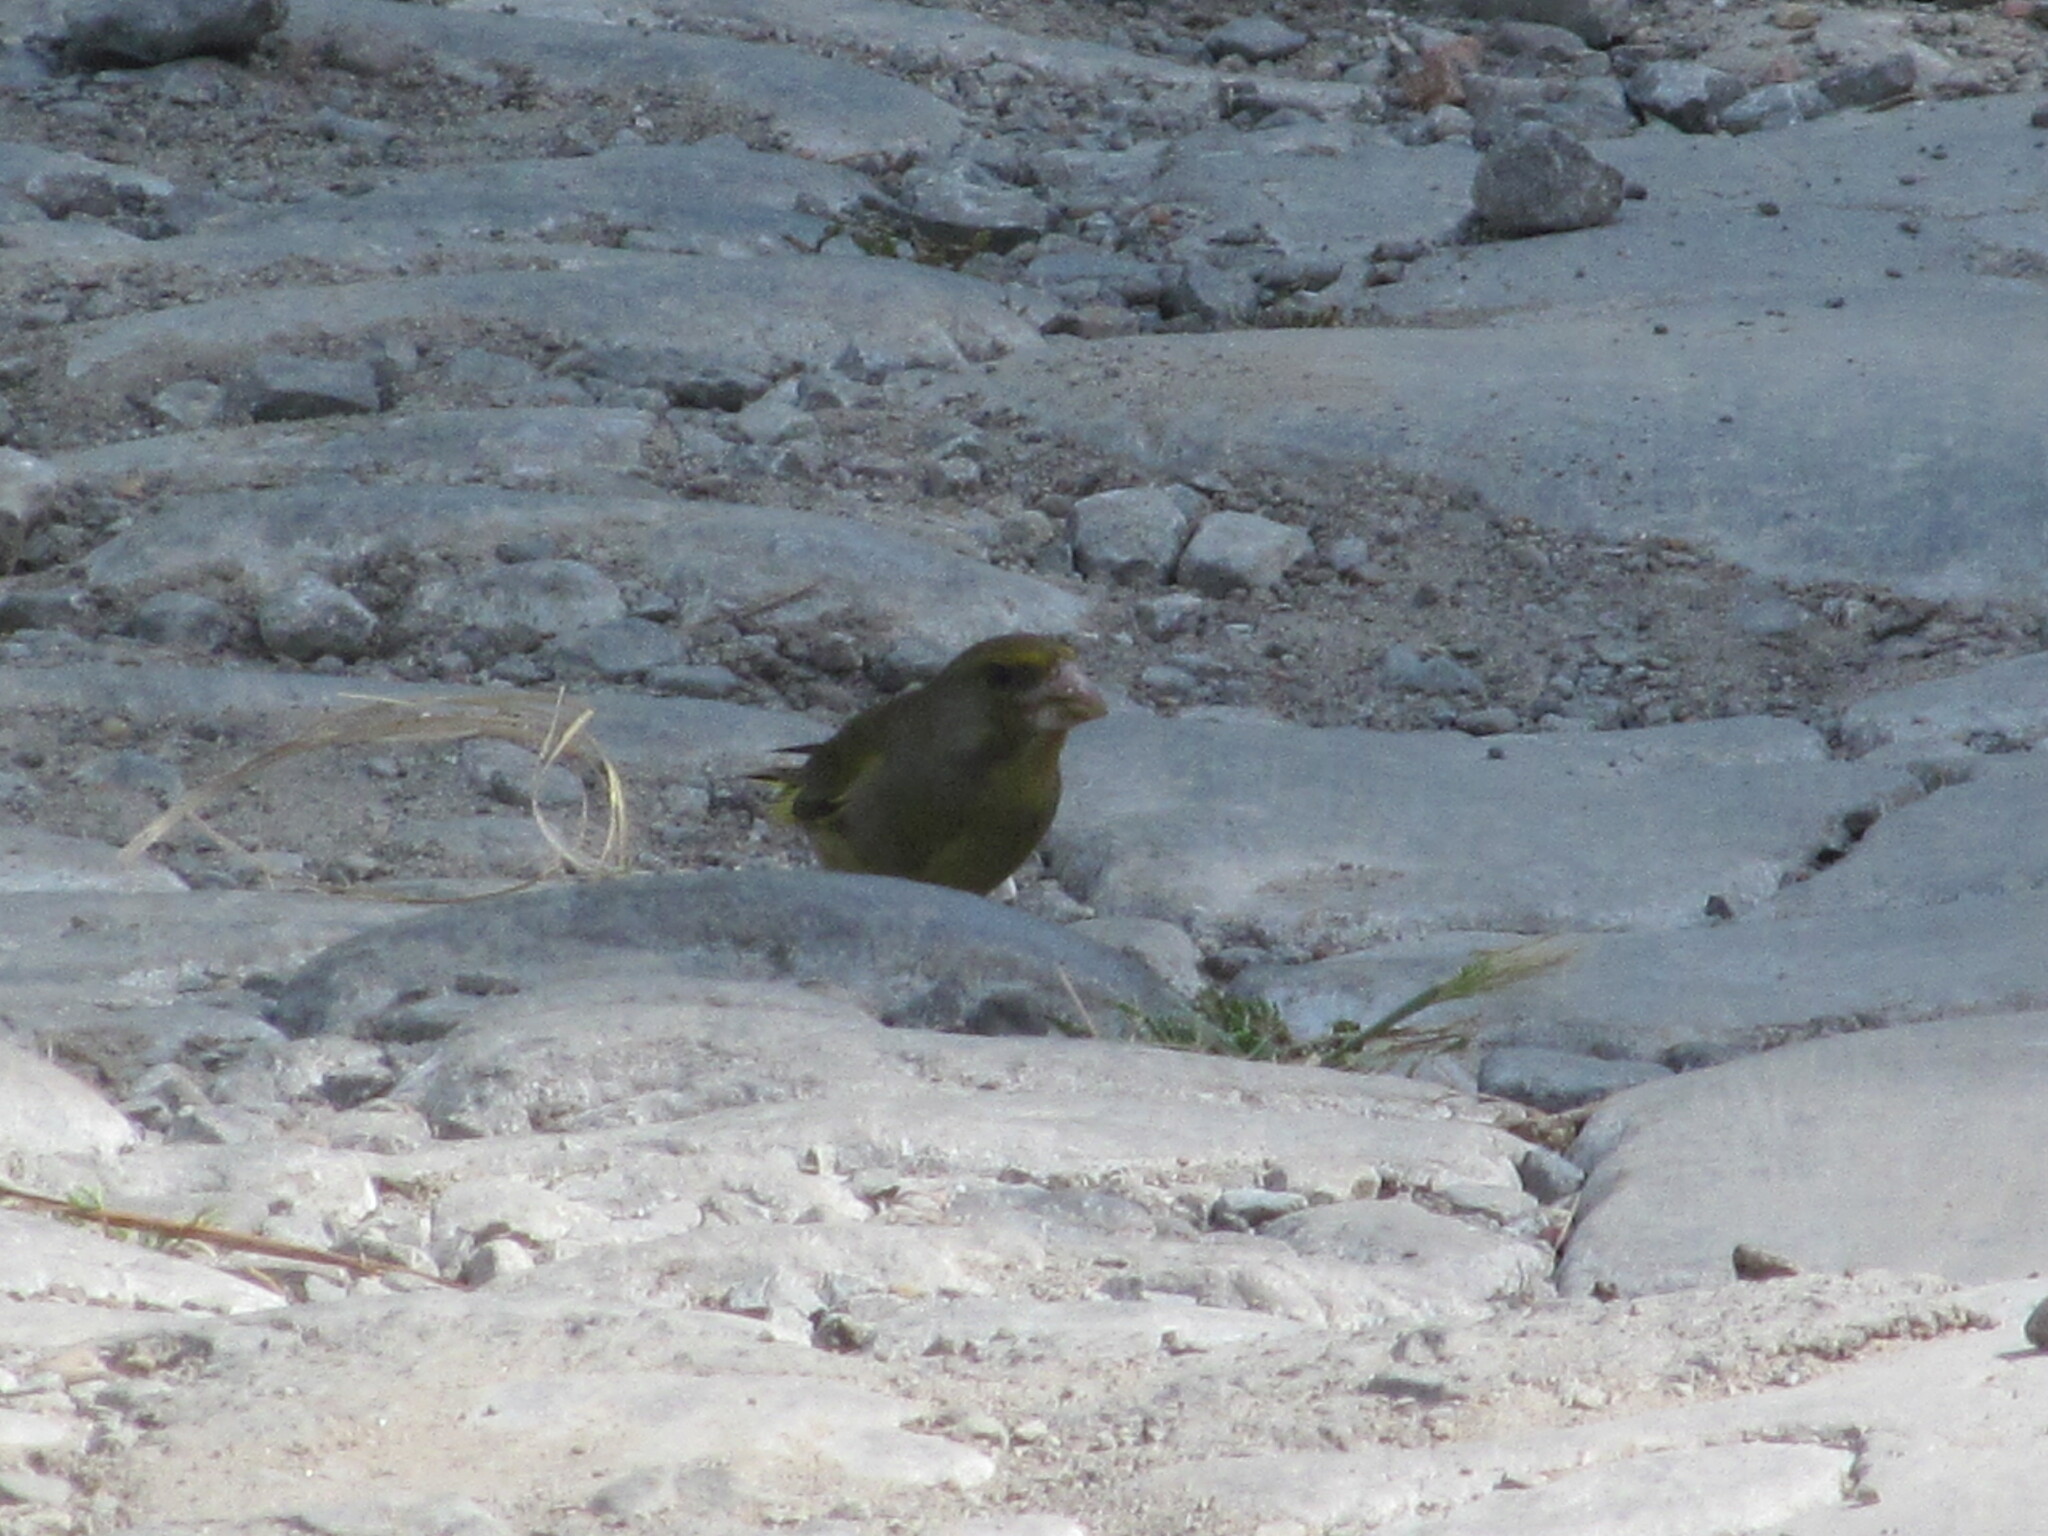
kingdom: Plantae
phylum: Tracheophyta
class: Liliopsida
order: Poales
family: Poaceae
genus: Chloris
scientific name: Chloris chloris
